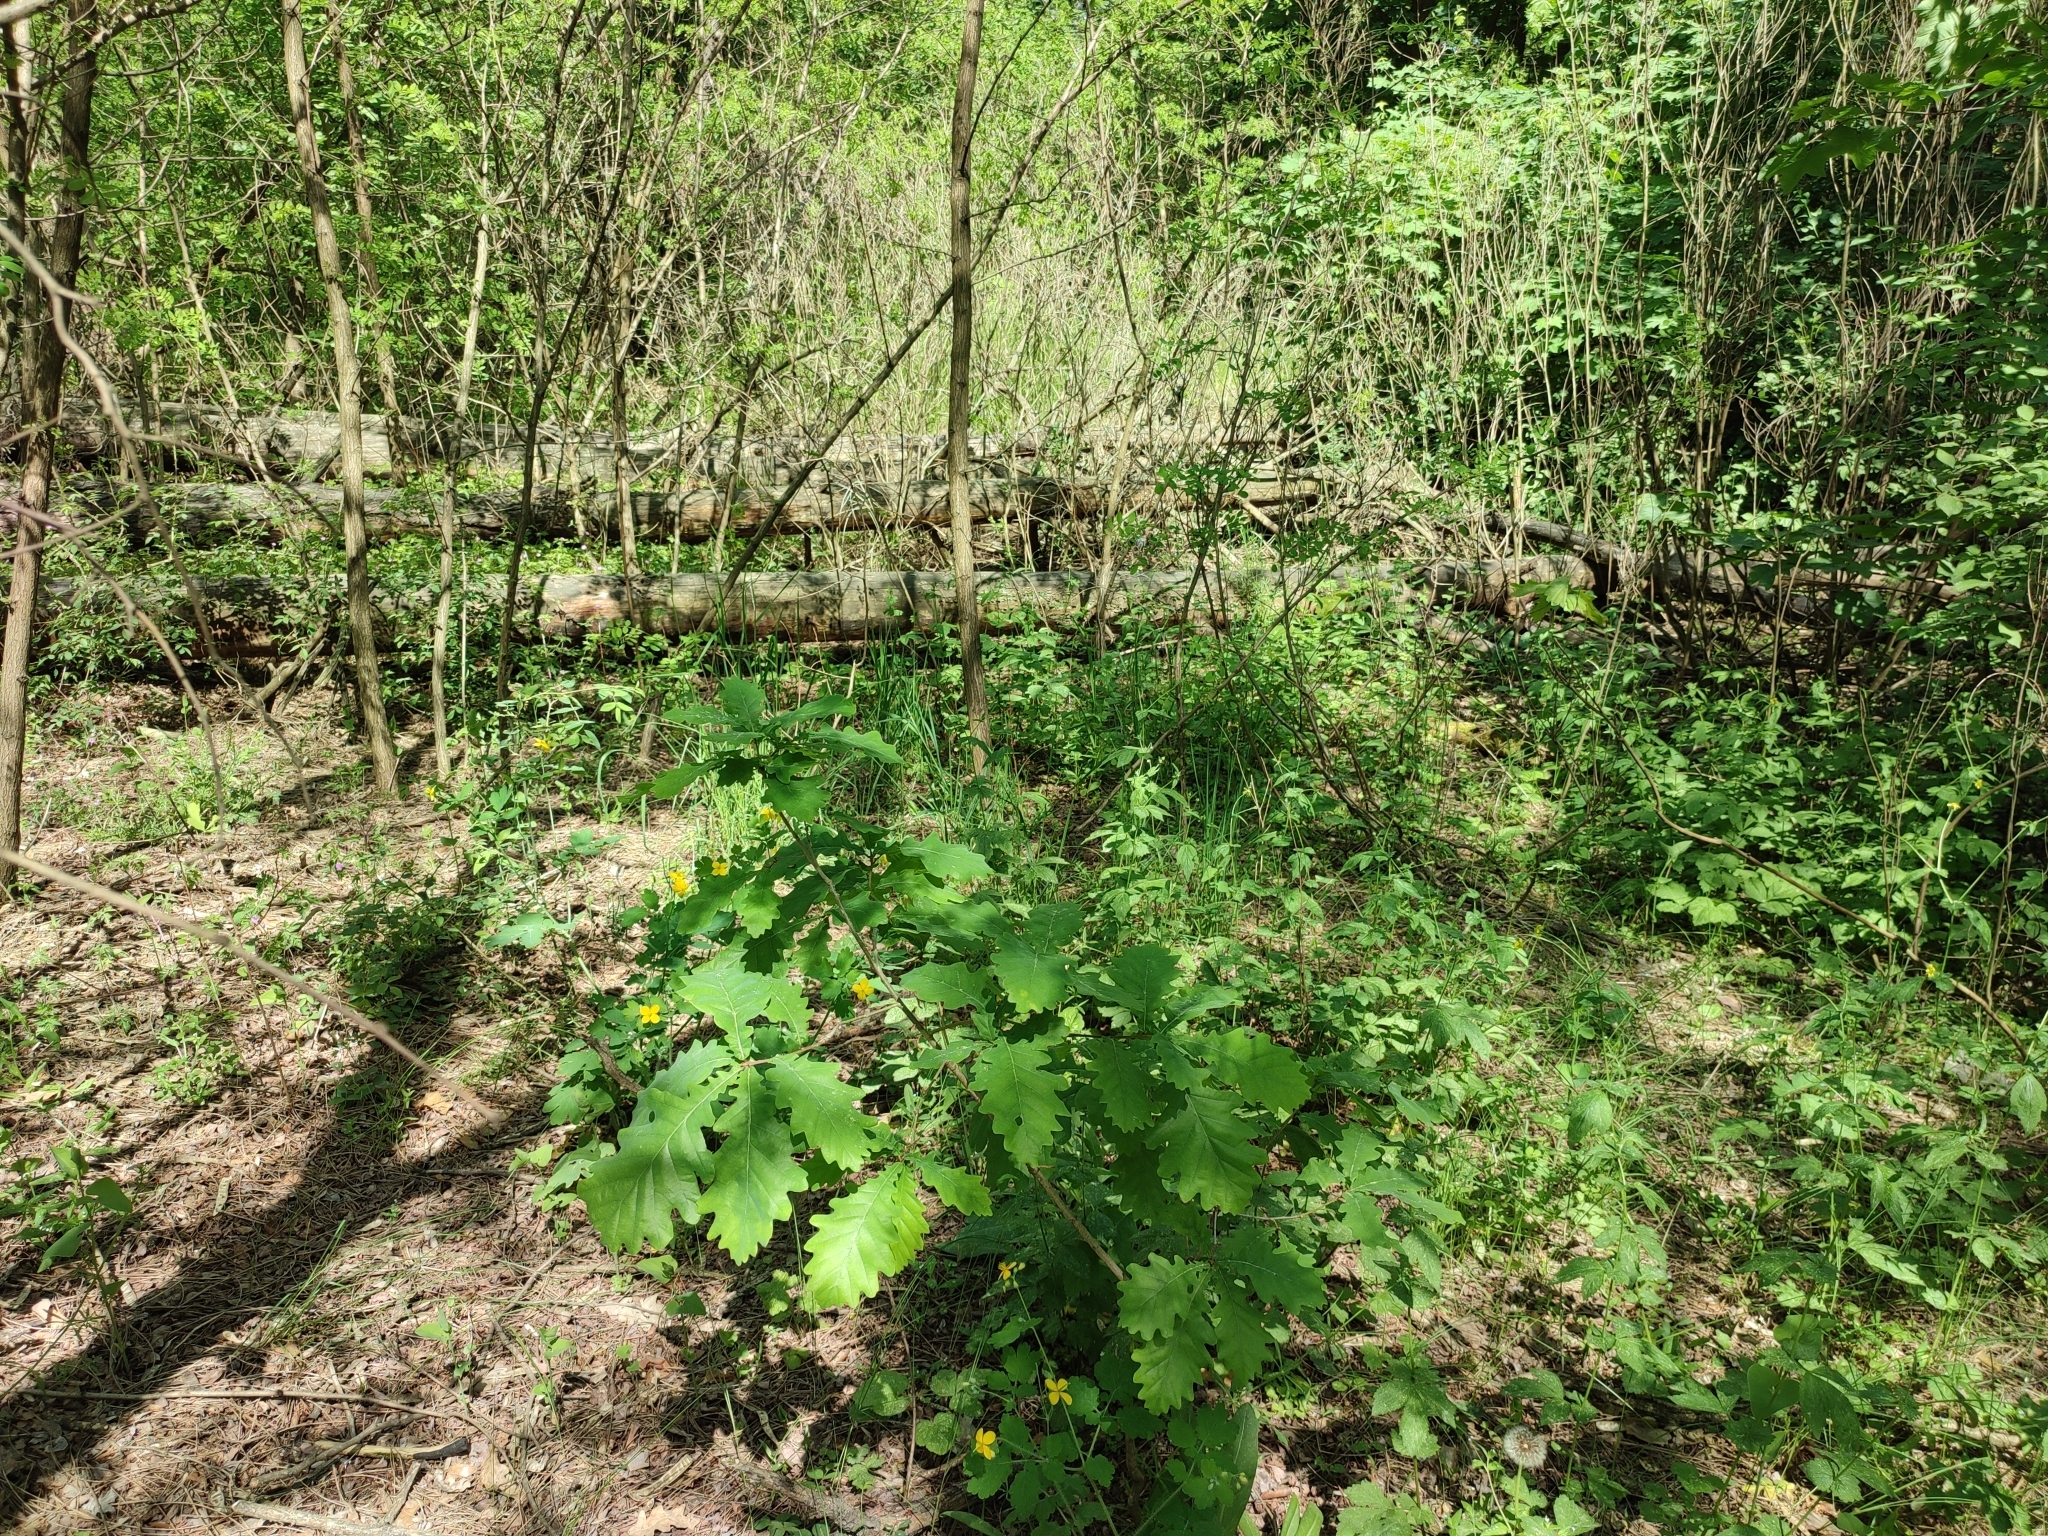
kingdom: Plantae
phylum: Tracheophyta
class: Magnoliopsida
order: Fagales
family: Fagaceae
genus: Quercus
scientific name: Quercus robur
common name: Pedunculate oak
